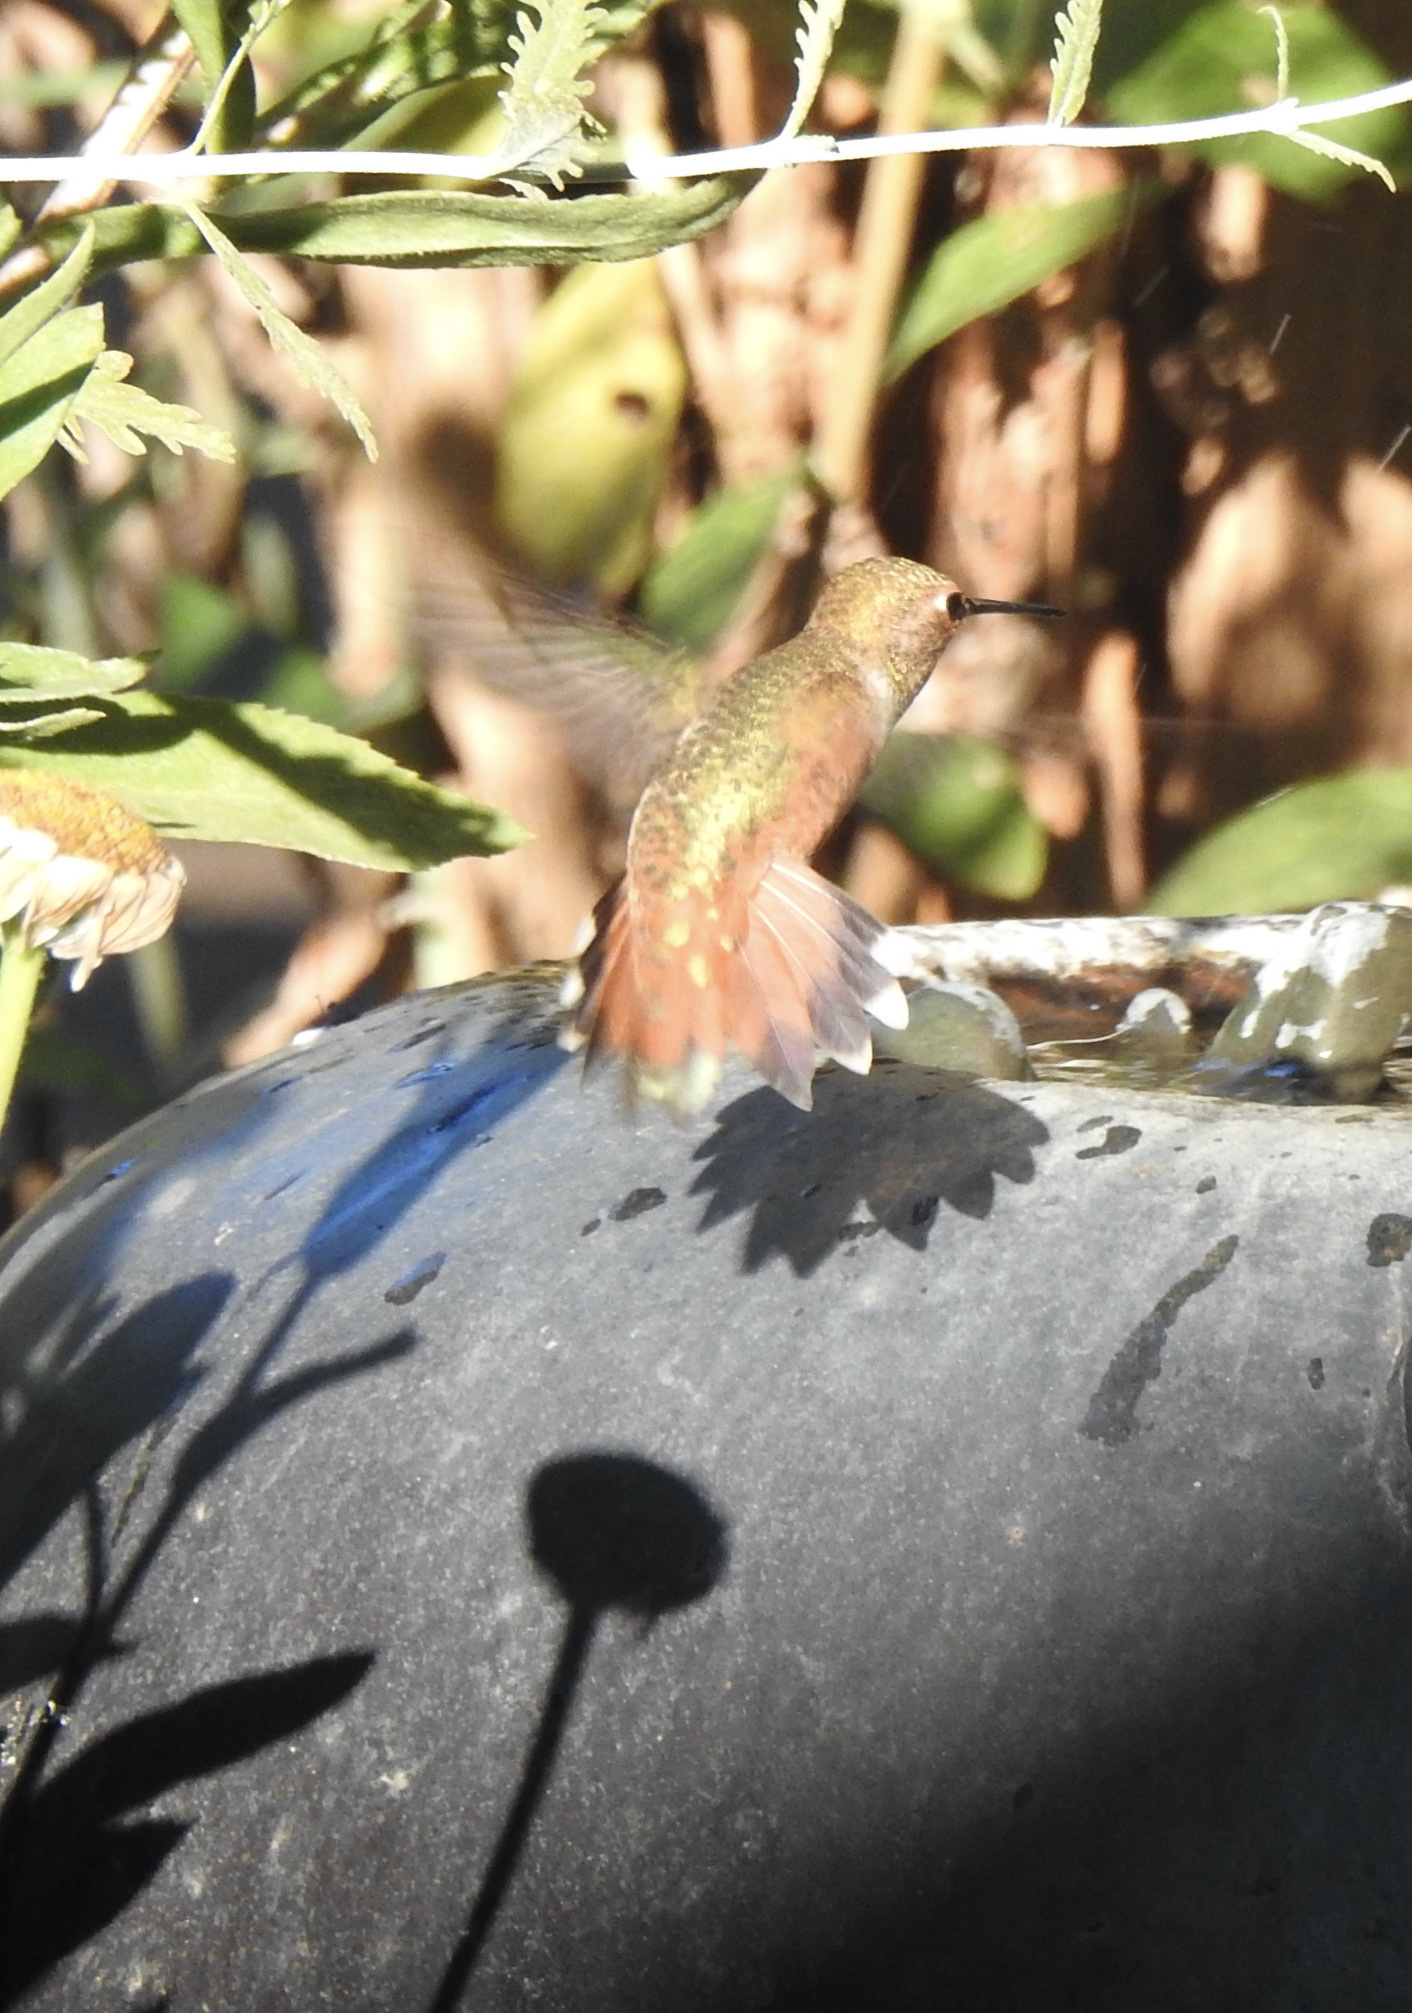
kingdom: Animalia
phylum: Chordata
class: Aves
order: Apodiformes
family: Trochilidae
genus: Selasphorus
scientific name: Selasphorus rufus
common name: Rufous hummingbird
